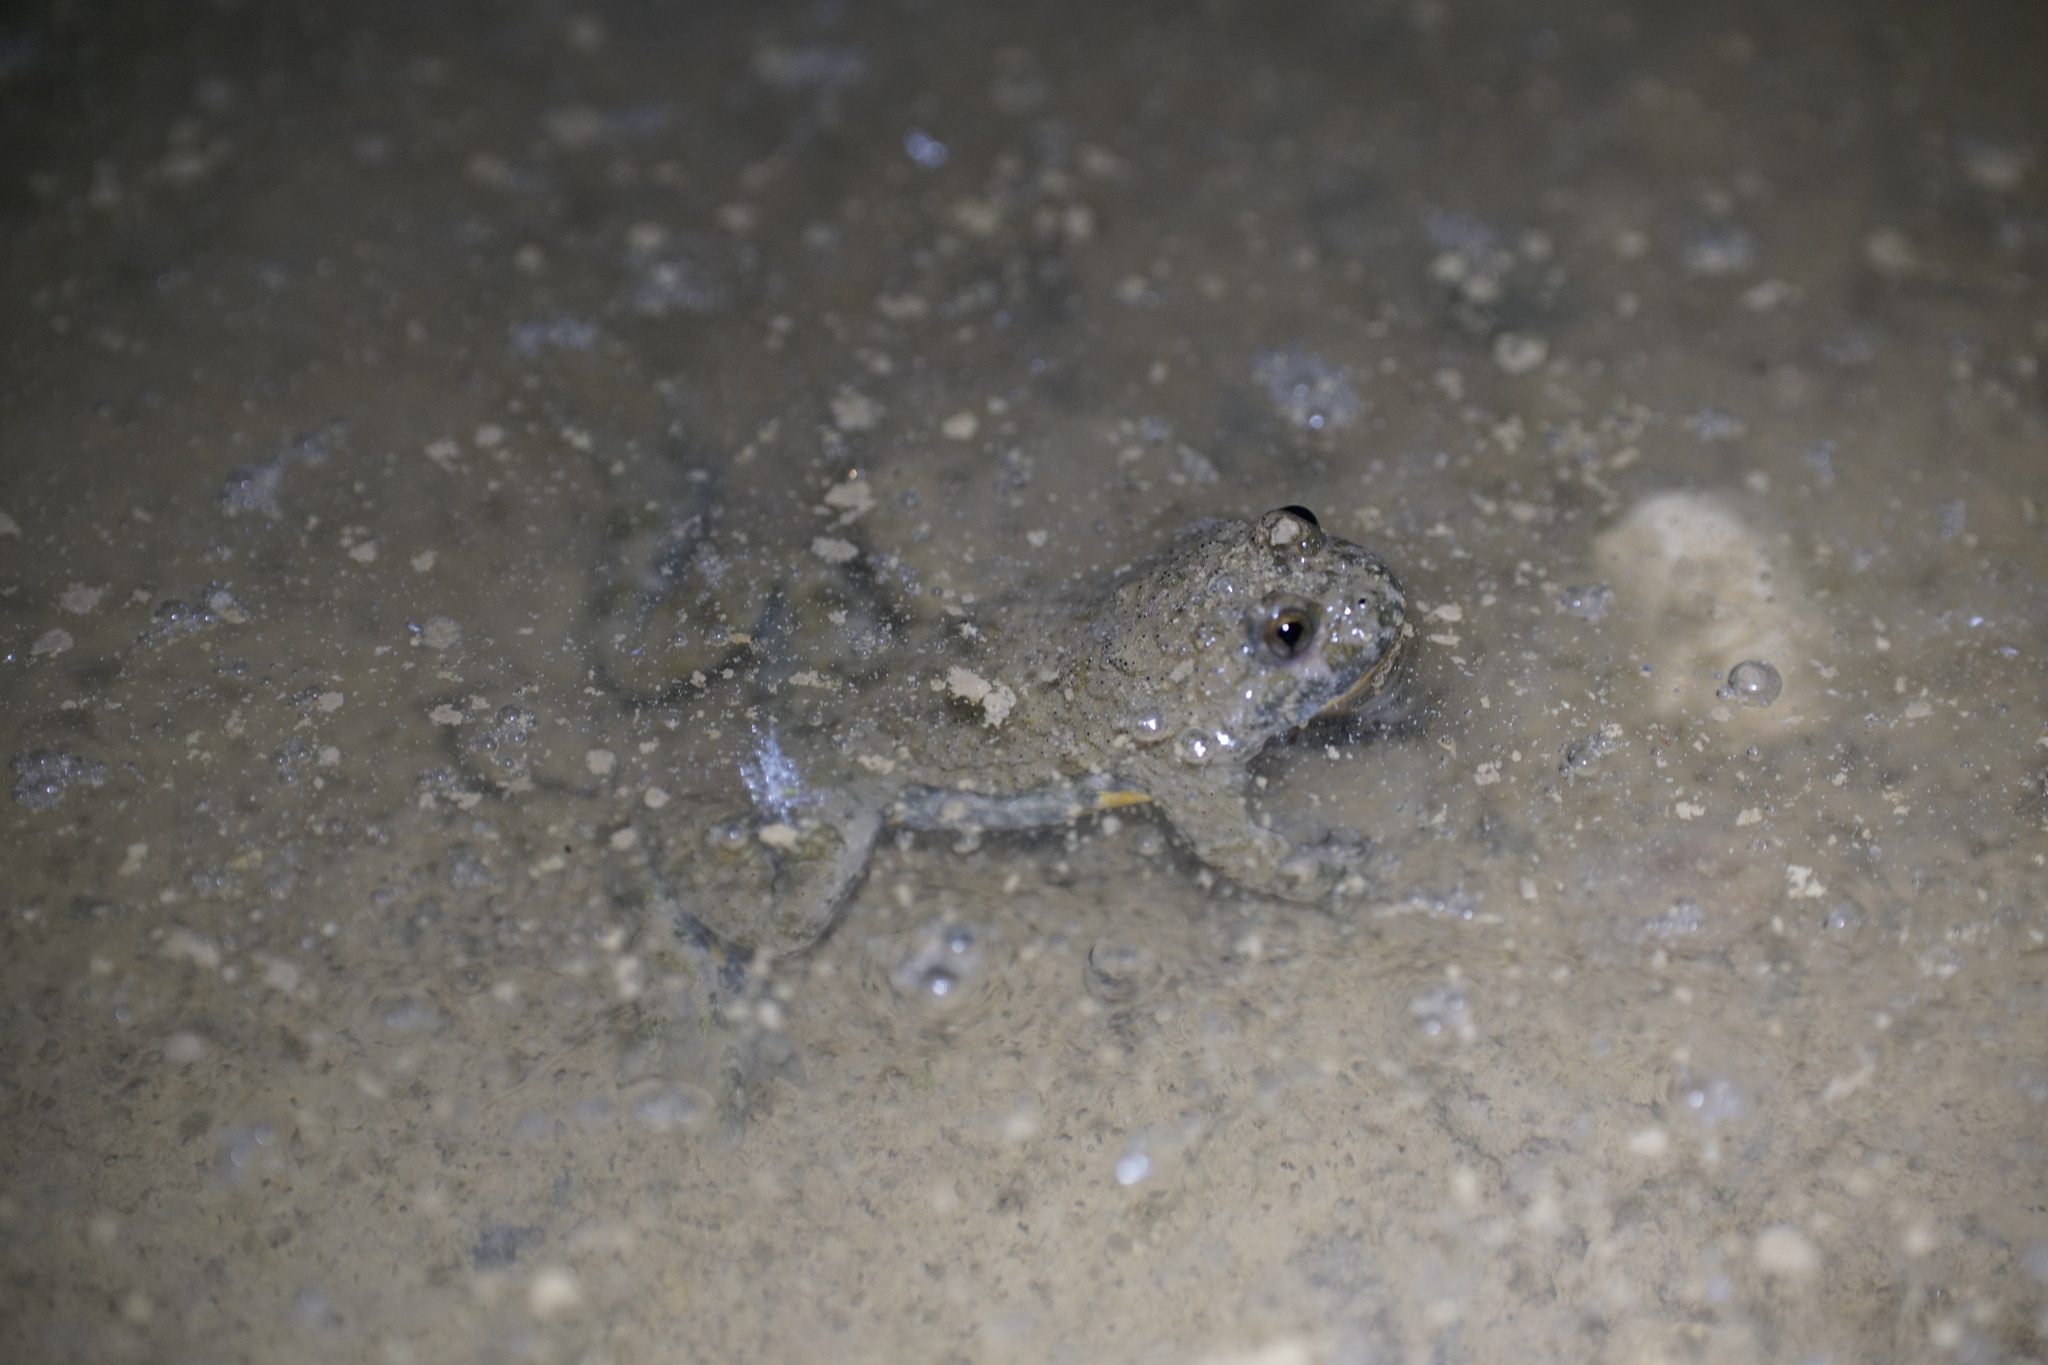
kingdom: Animalia
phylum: Chordata
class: Amphibia
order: Anura
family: Bombinatoridae
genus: Bombina
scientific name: Bombina variegata
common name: Yellow-bellied toad
